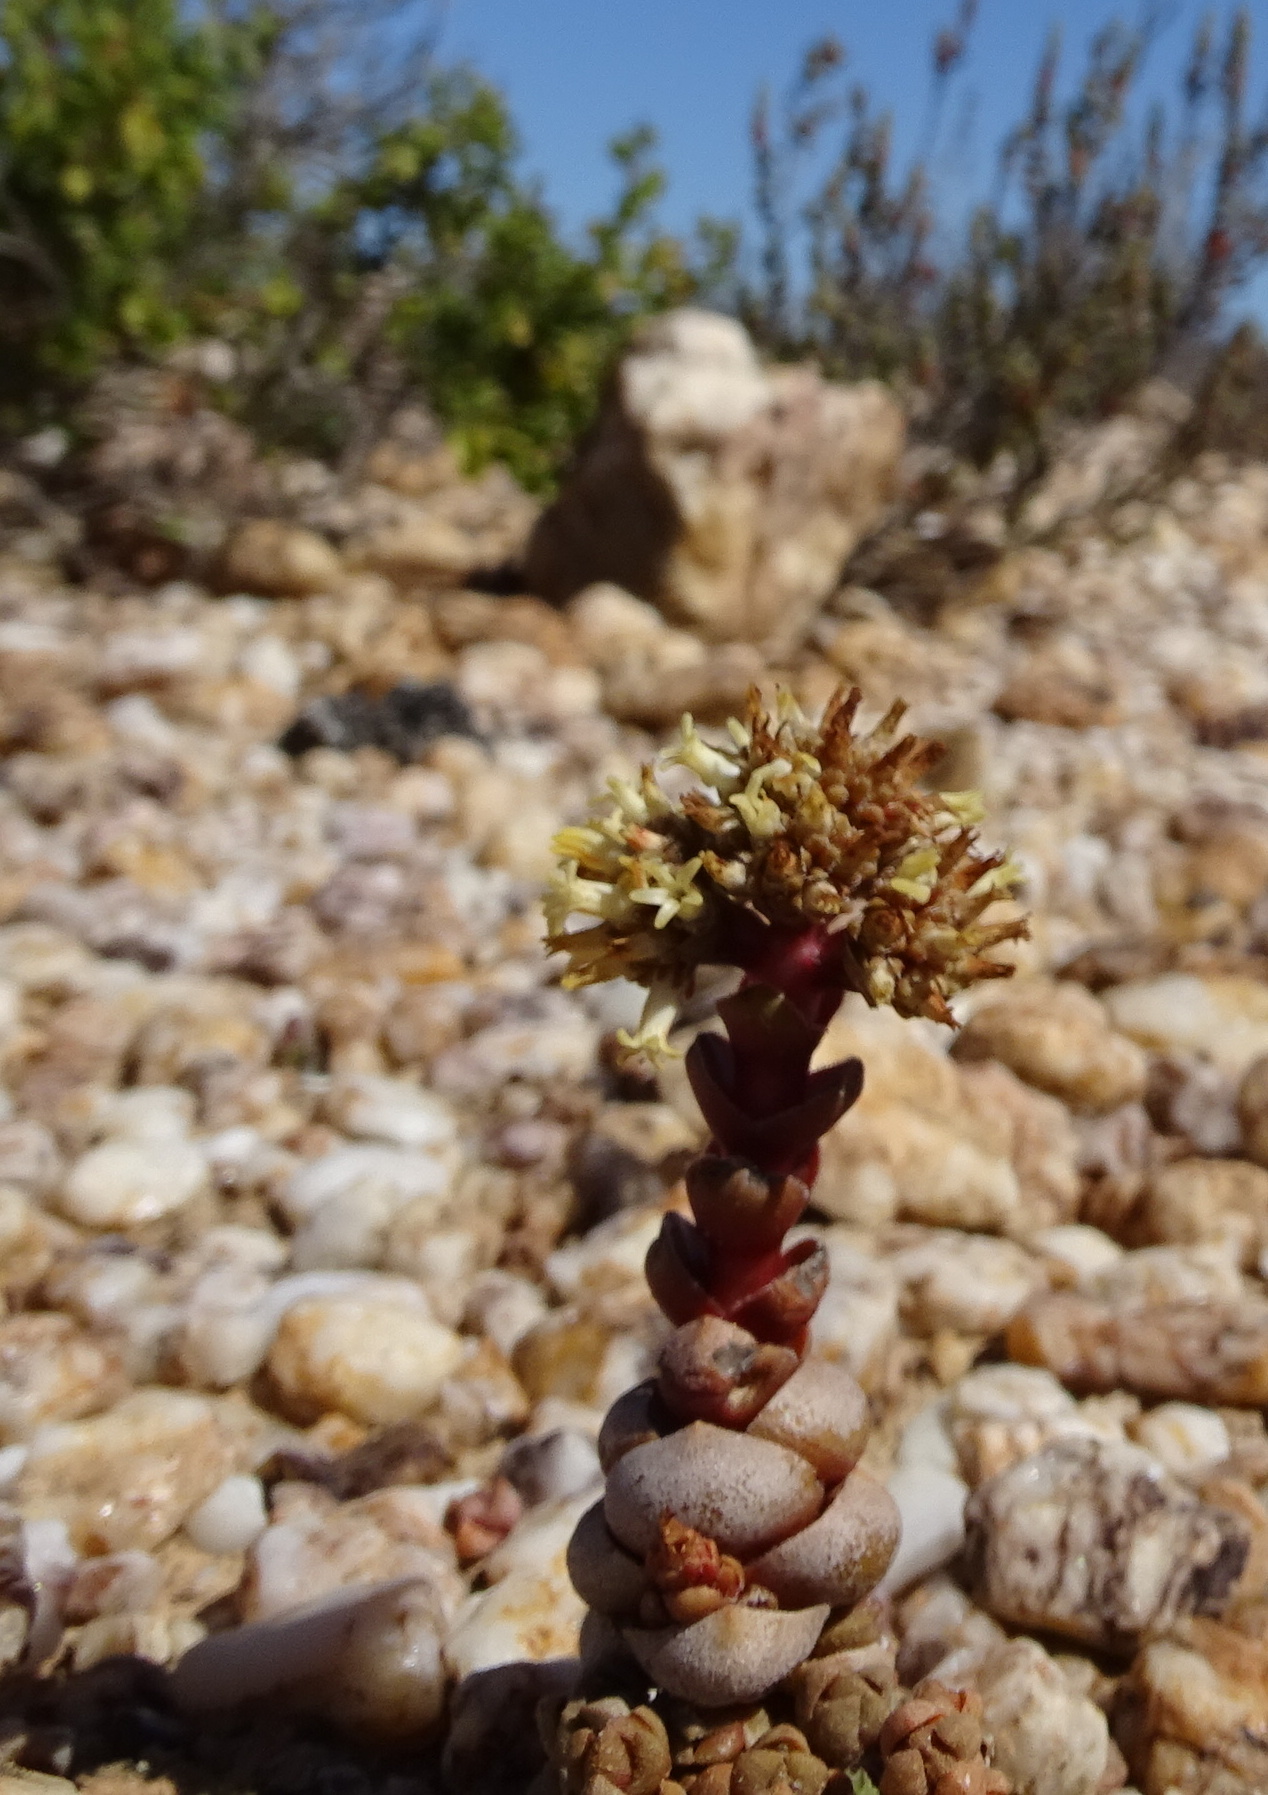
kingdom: Plantae
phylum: Tracheophyta
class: Magnoliopsida
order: Saxifragales
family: Crassulaceae
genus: Crassula
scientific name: Crassula columnaris
